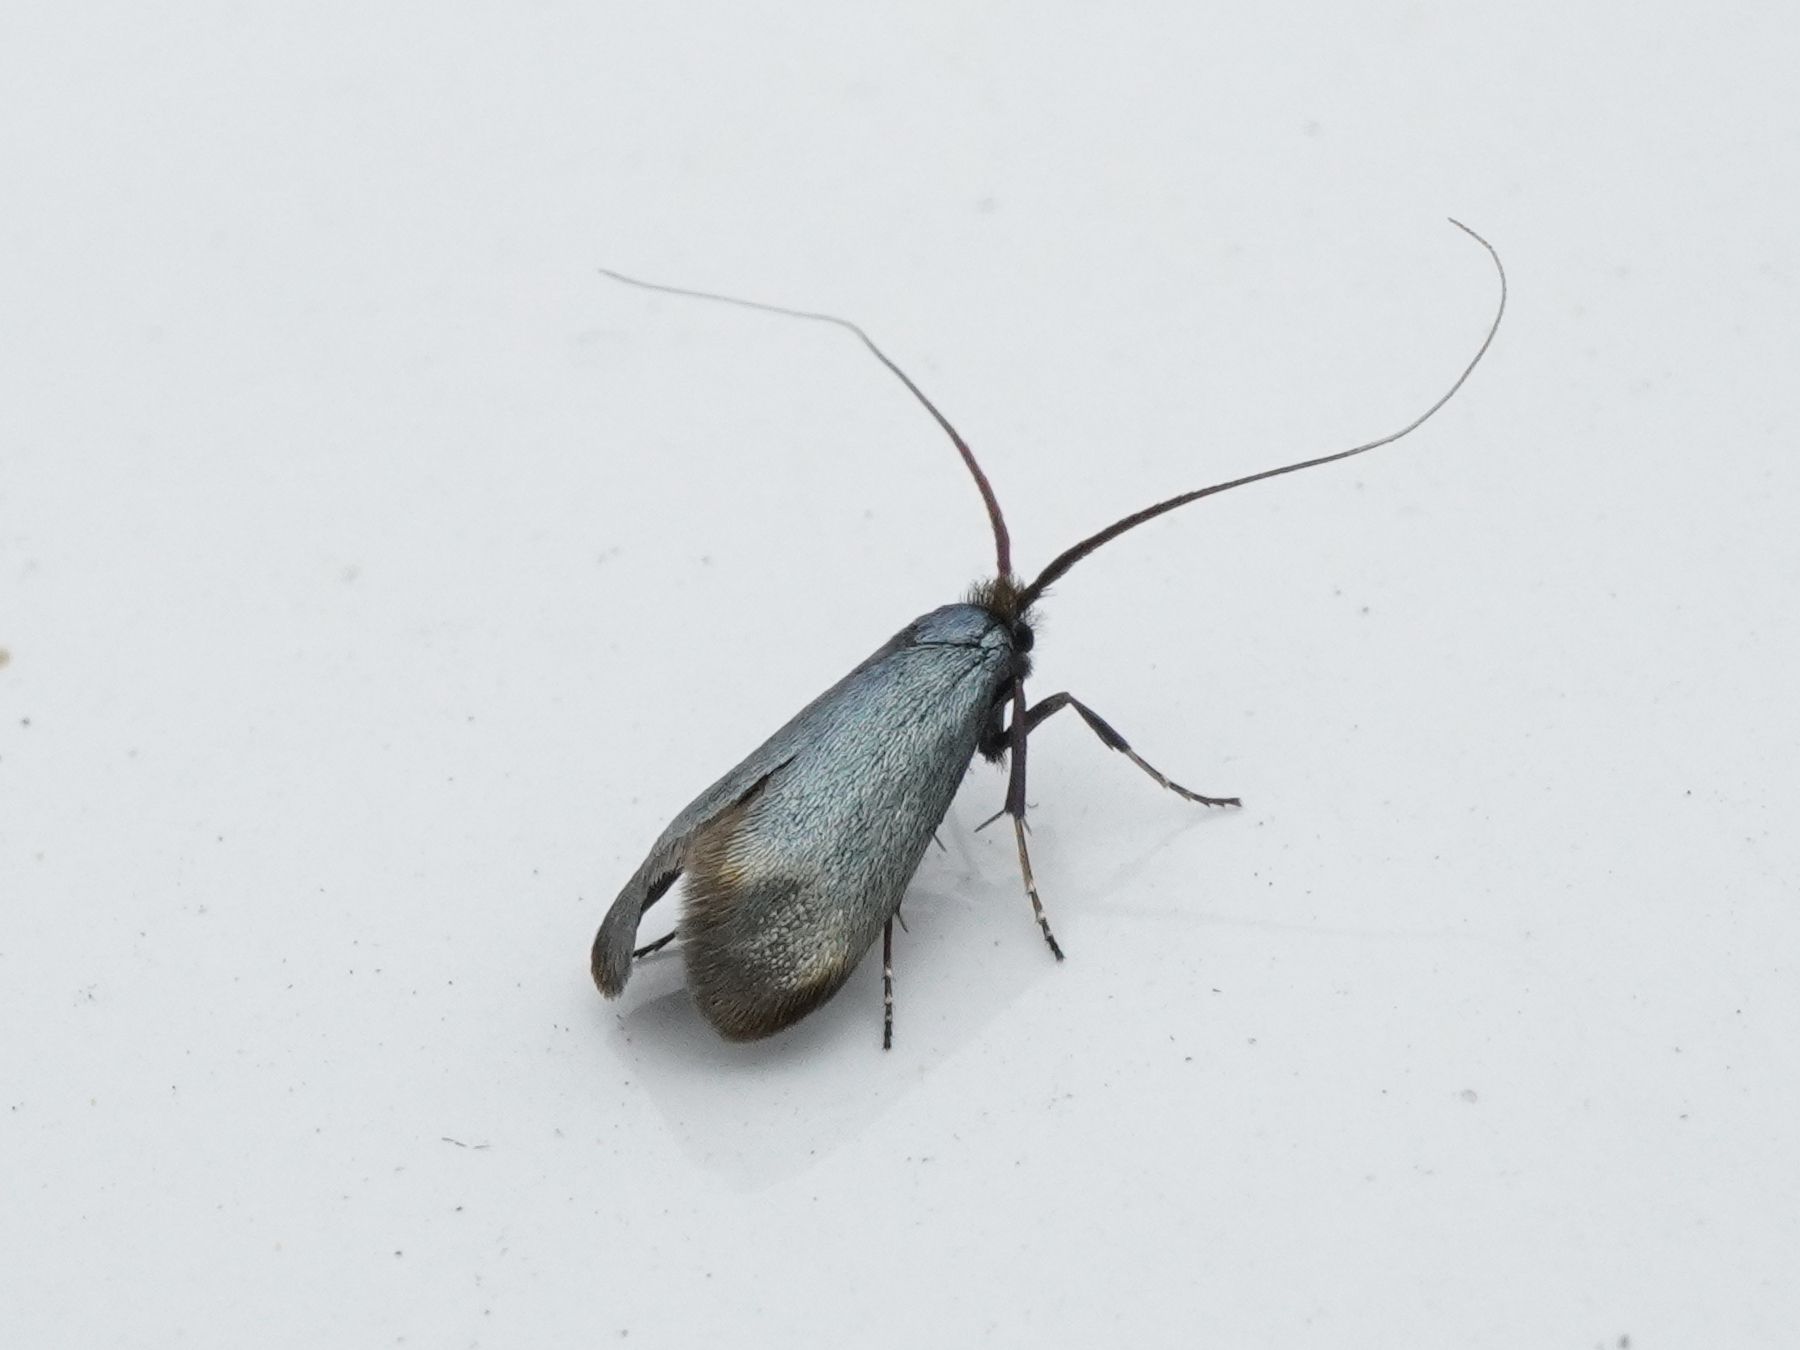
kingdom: Animalia
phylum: Arthropoda
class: Insecta
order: Lepidoptera
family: Adelidae
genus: Adela
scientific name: Adela viridella
